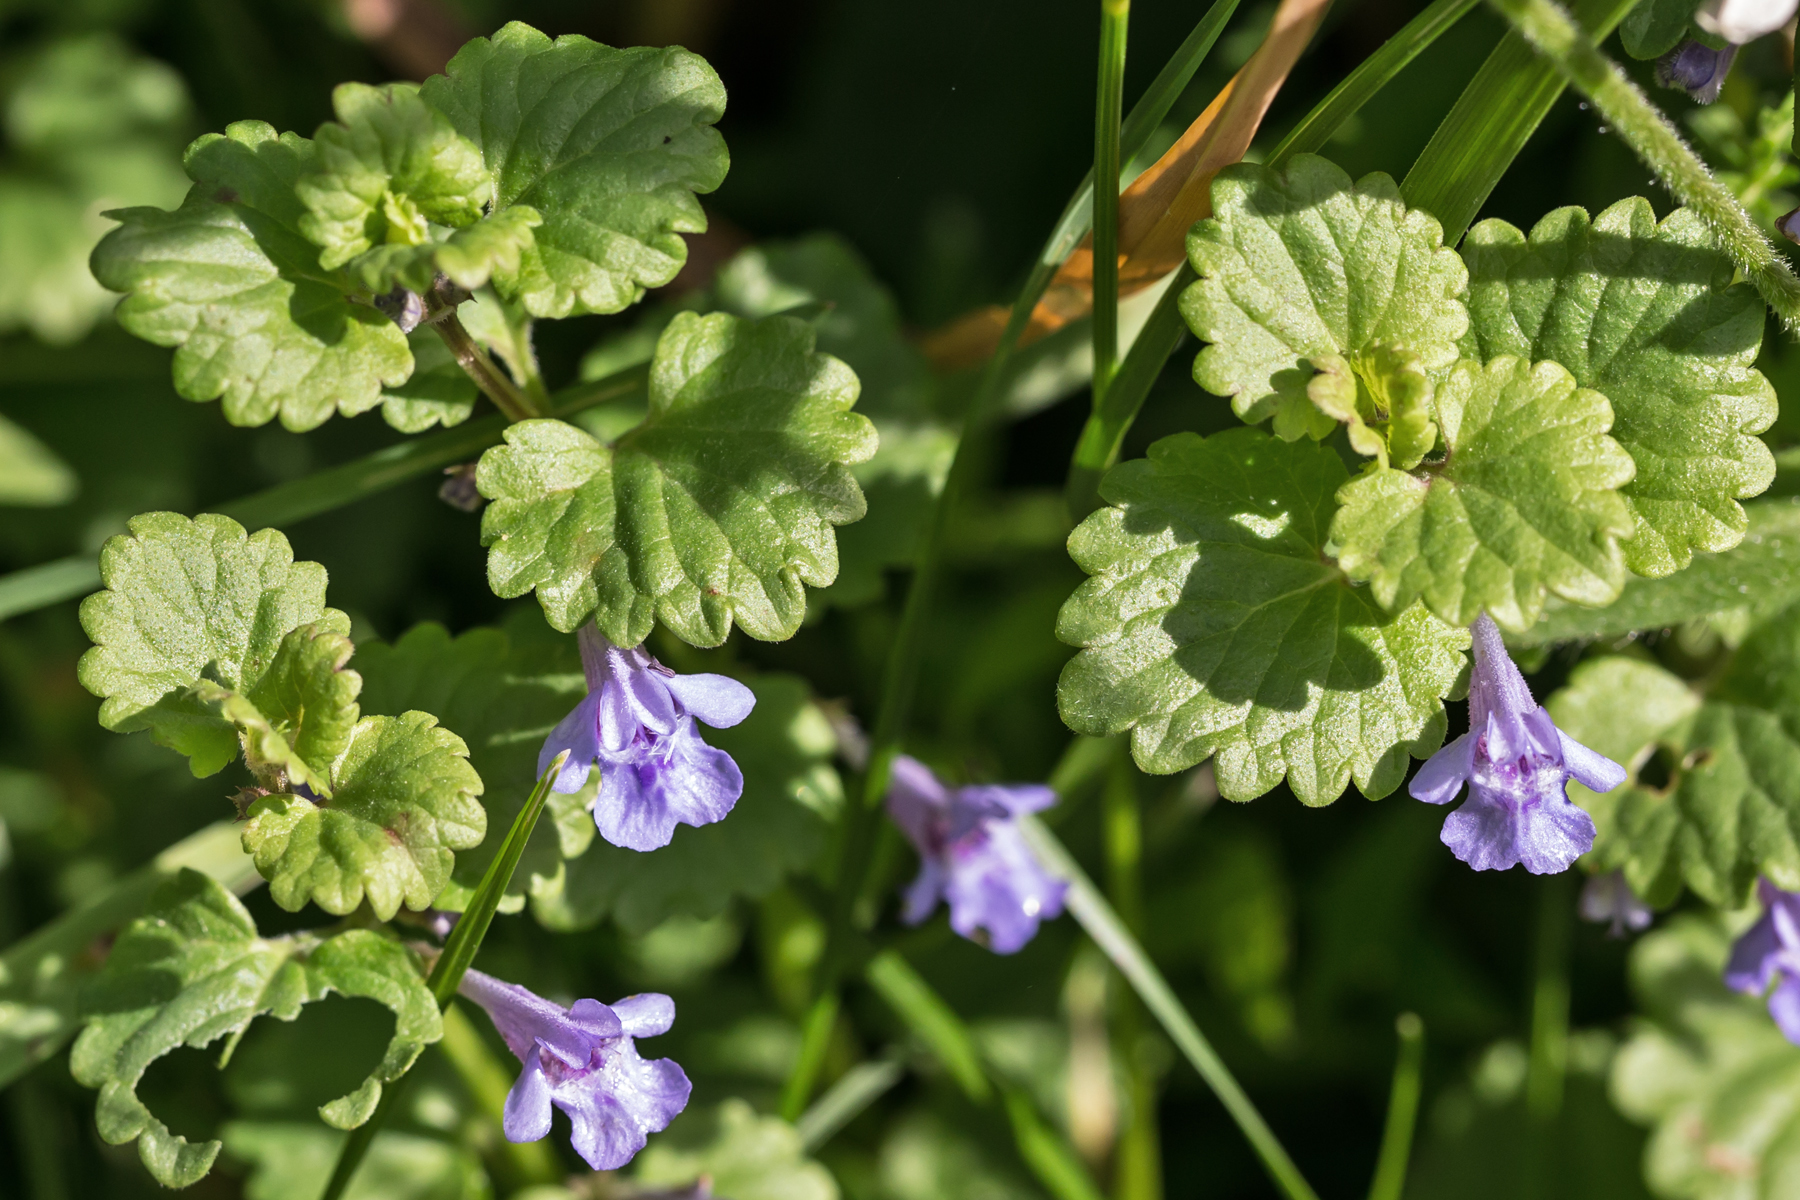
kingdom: Plantae
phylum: Tracheophyta
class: Magnoliopsida
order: Lamiales
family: Lamiaceae
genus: Glechoma
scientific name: Glechoma hederacea
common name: Ground ivy
